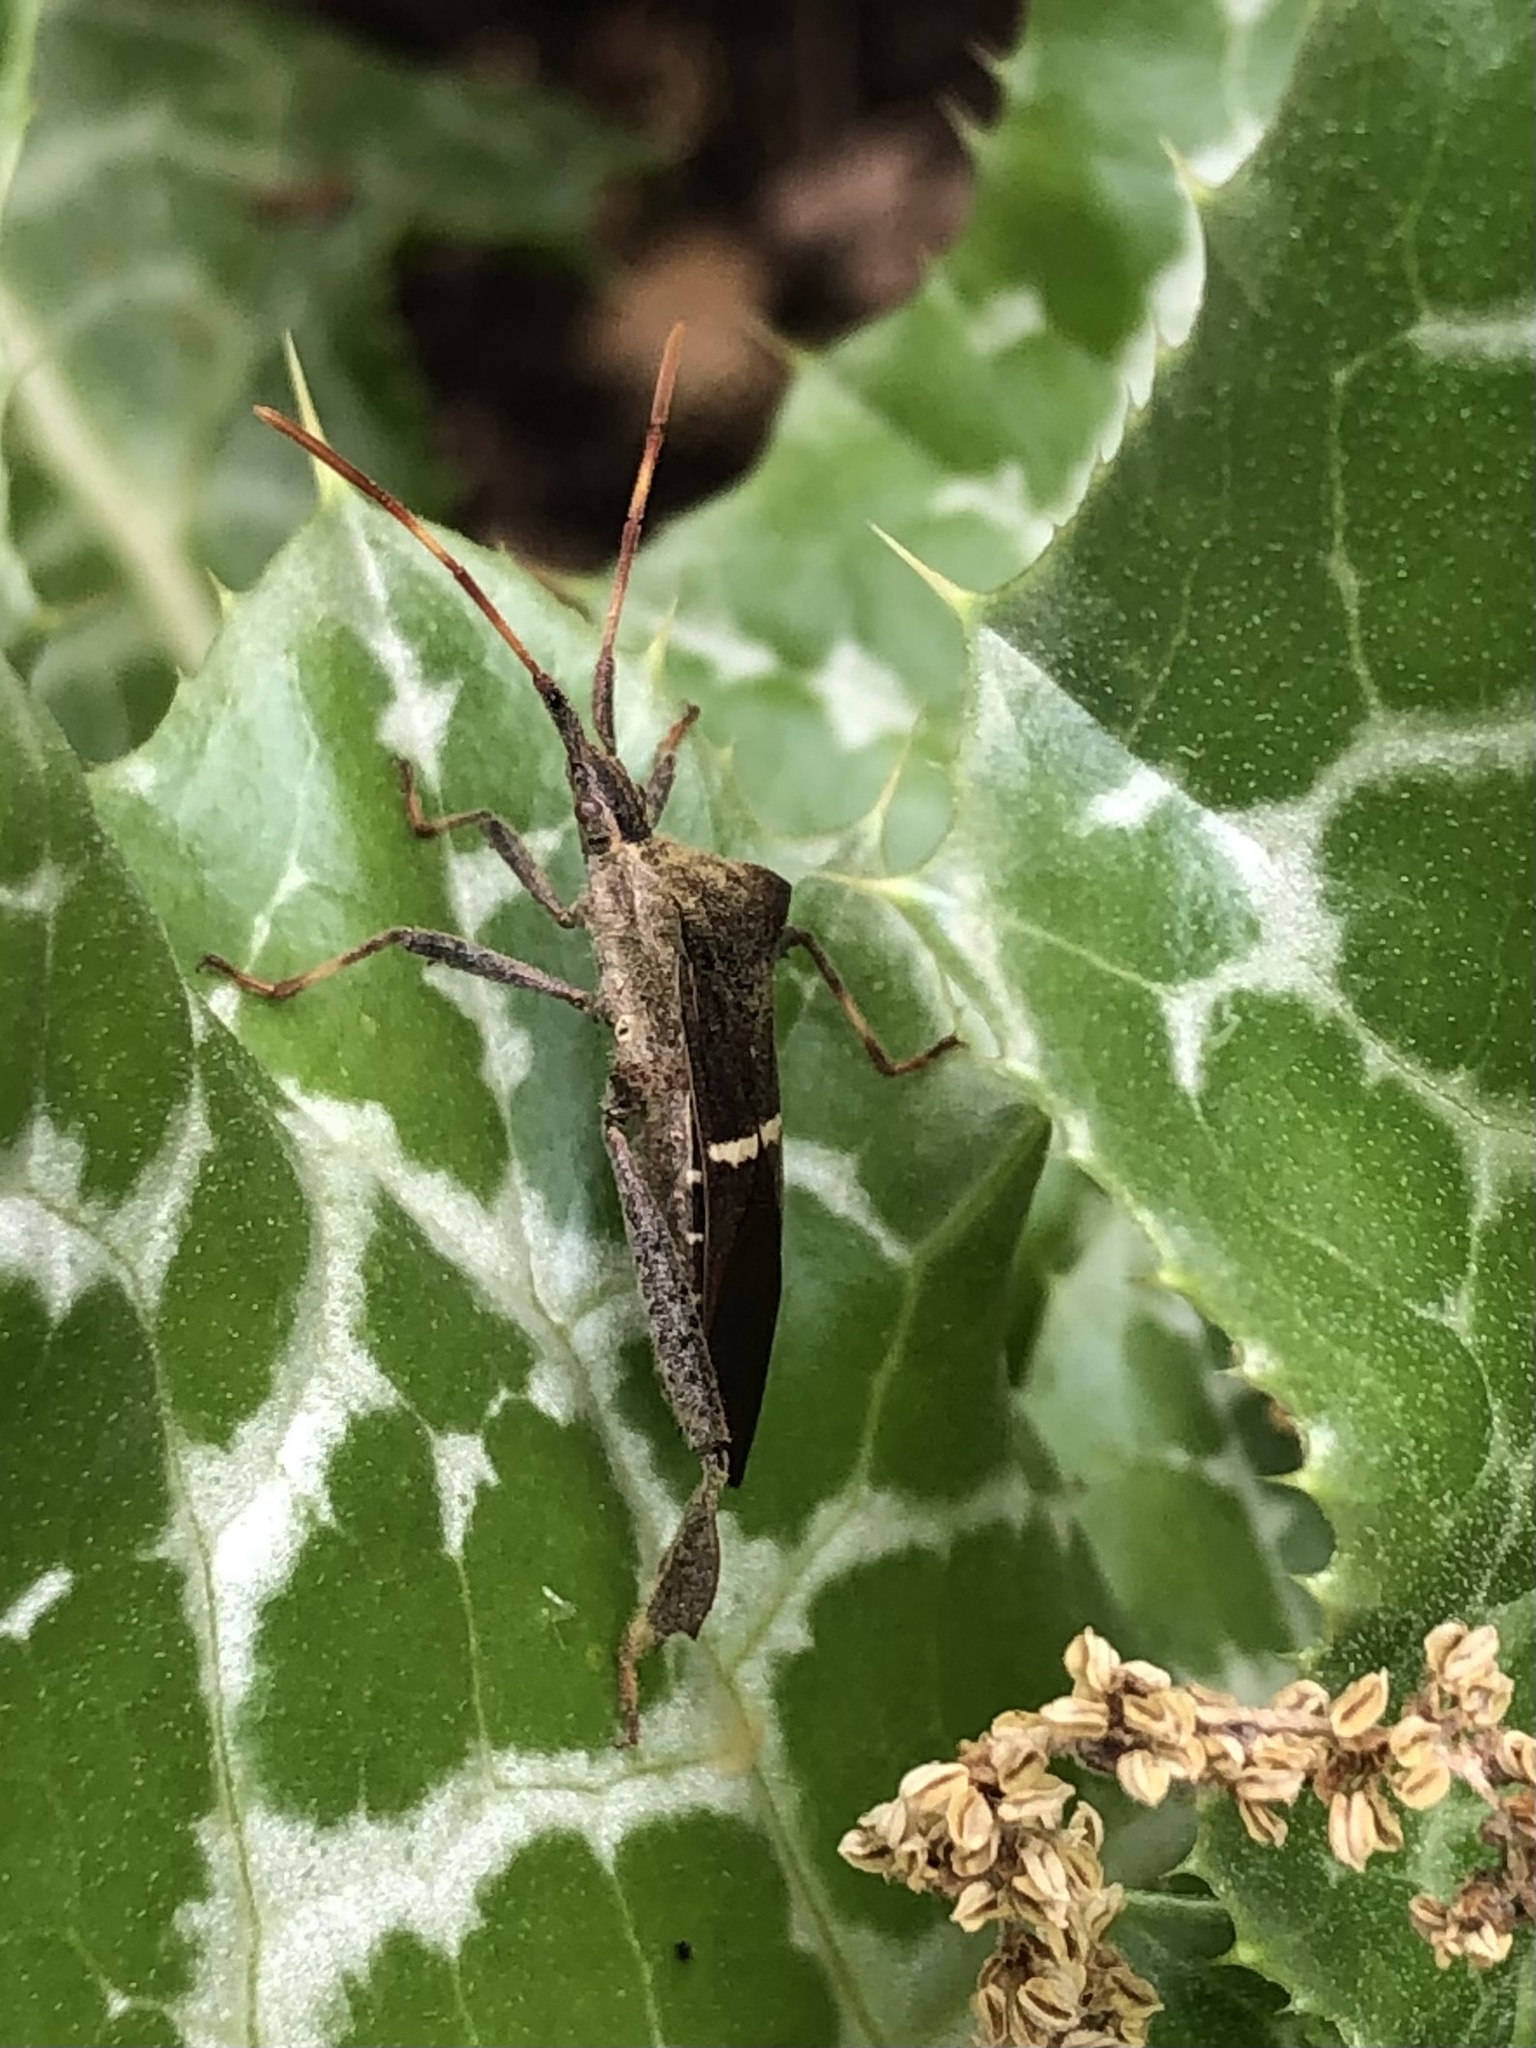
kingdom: Animalia
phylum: Arthropoda
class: Insecta
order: Hemiptera
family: Coreidae
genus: Leptoglossus
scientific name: Leptoglossus phyllopus
